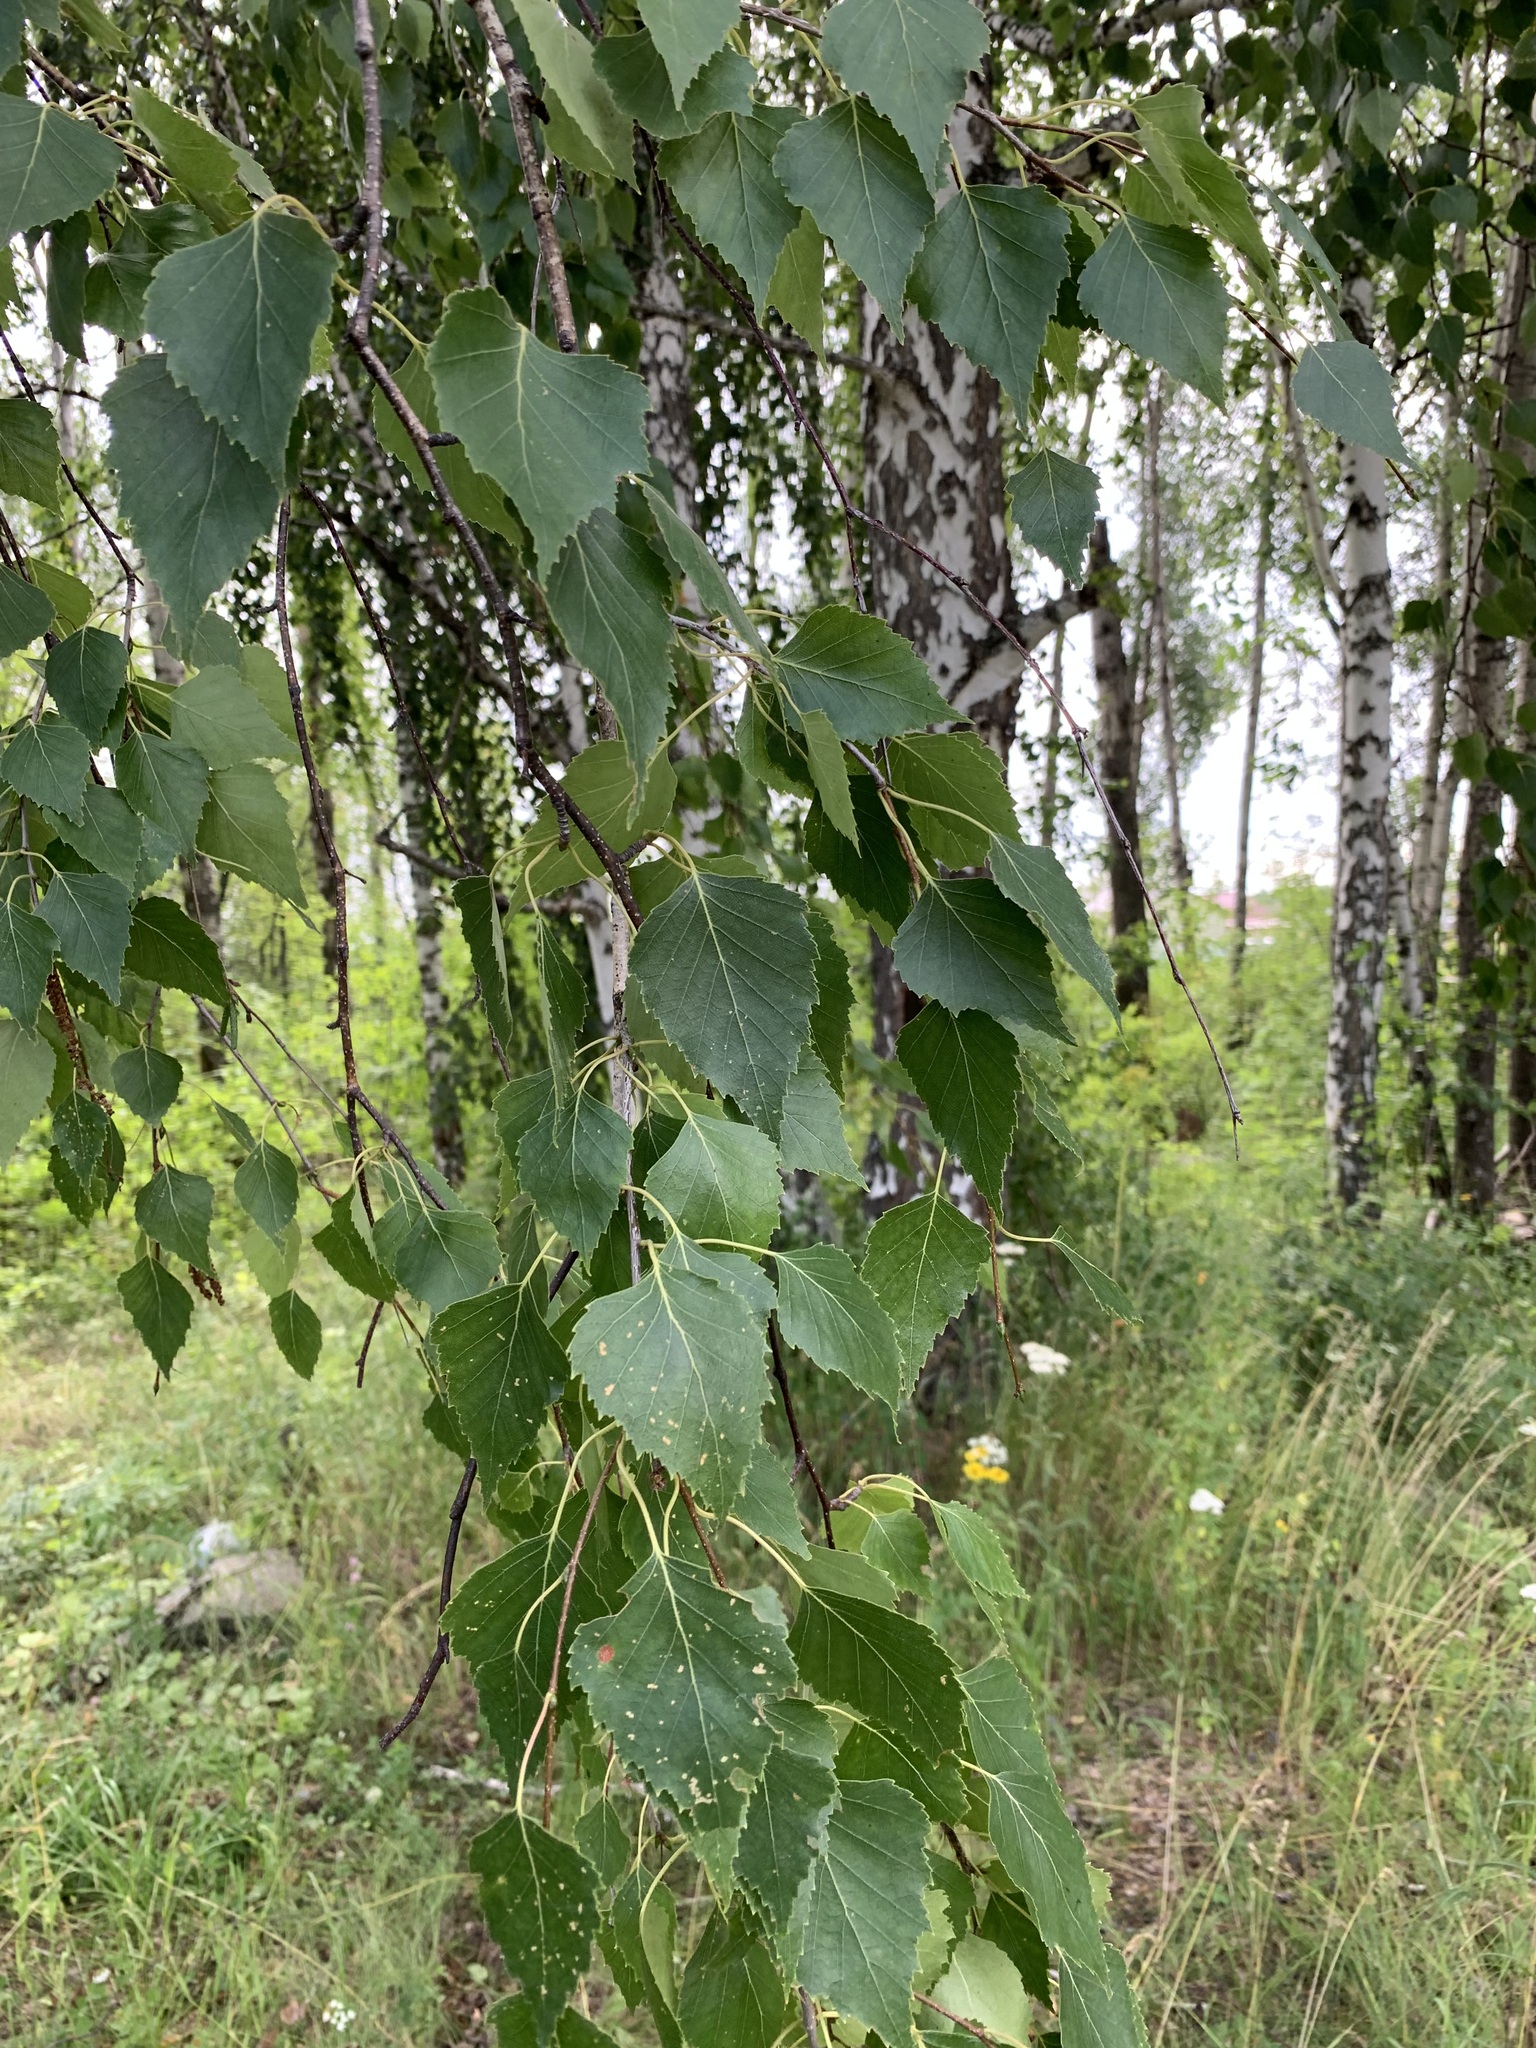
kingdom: Plantae
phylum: Tracheophyta
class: Magnoliopsida
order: Fagales
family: Betulaceae
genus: Betula
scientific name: Betula pendula
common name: Silver birch
